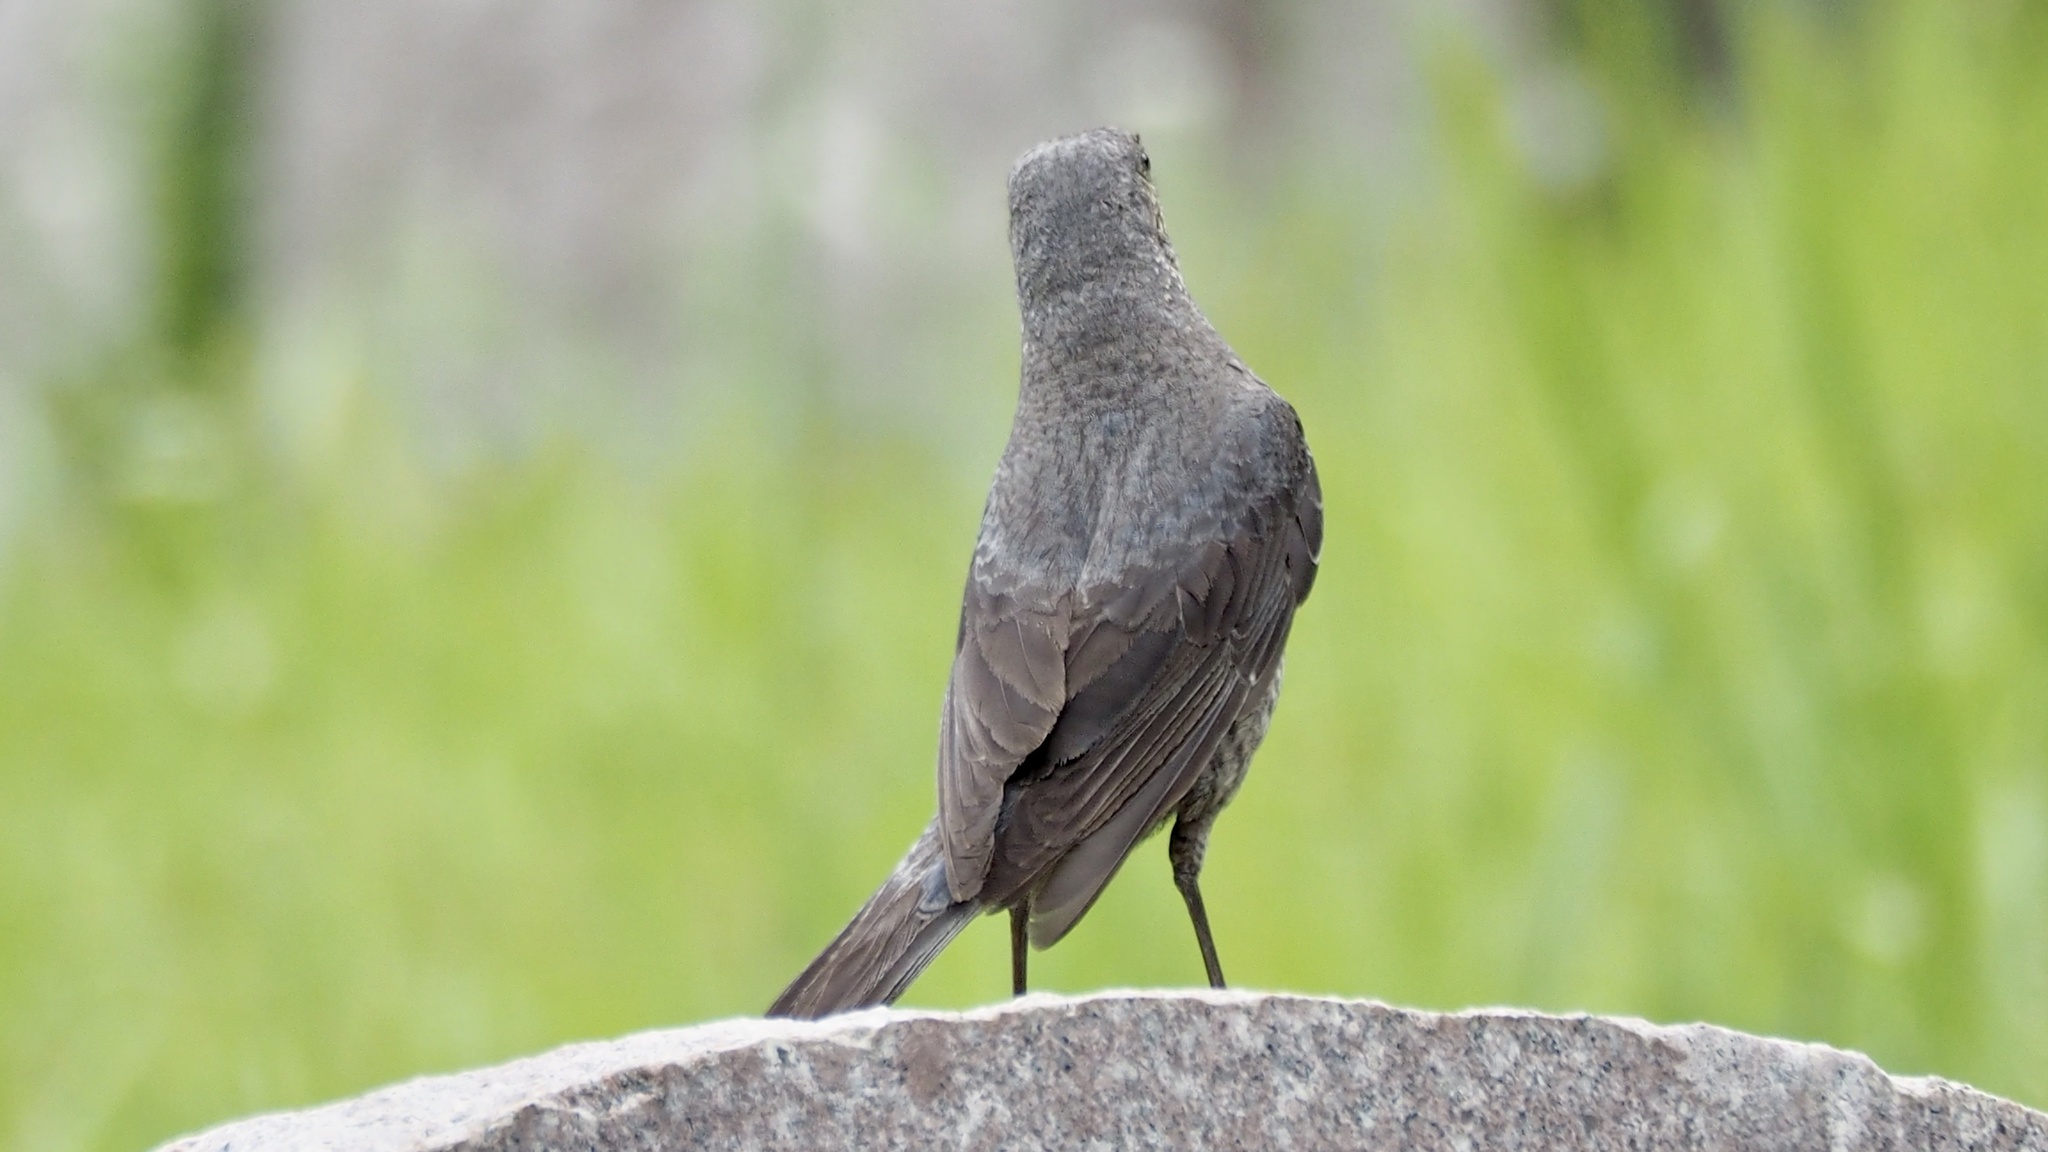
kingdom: Animalia
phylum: Chordata
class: Aves
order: Passeriformes
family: Muscicapidae
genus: Monticola
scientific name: Monticola solitarius
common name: Blue rock thrush
